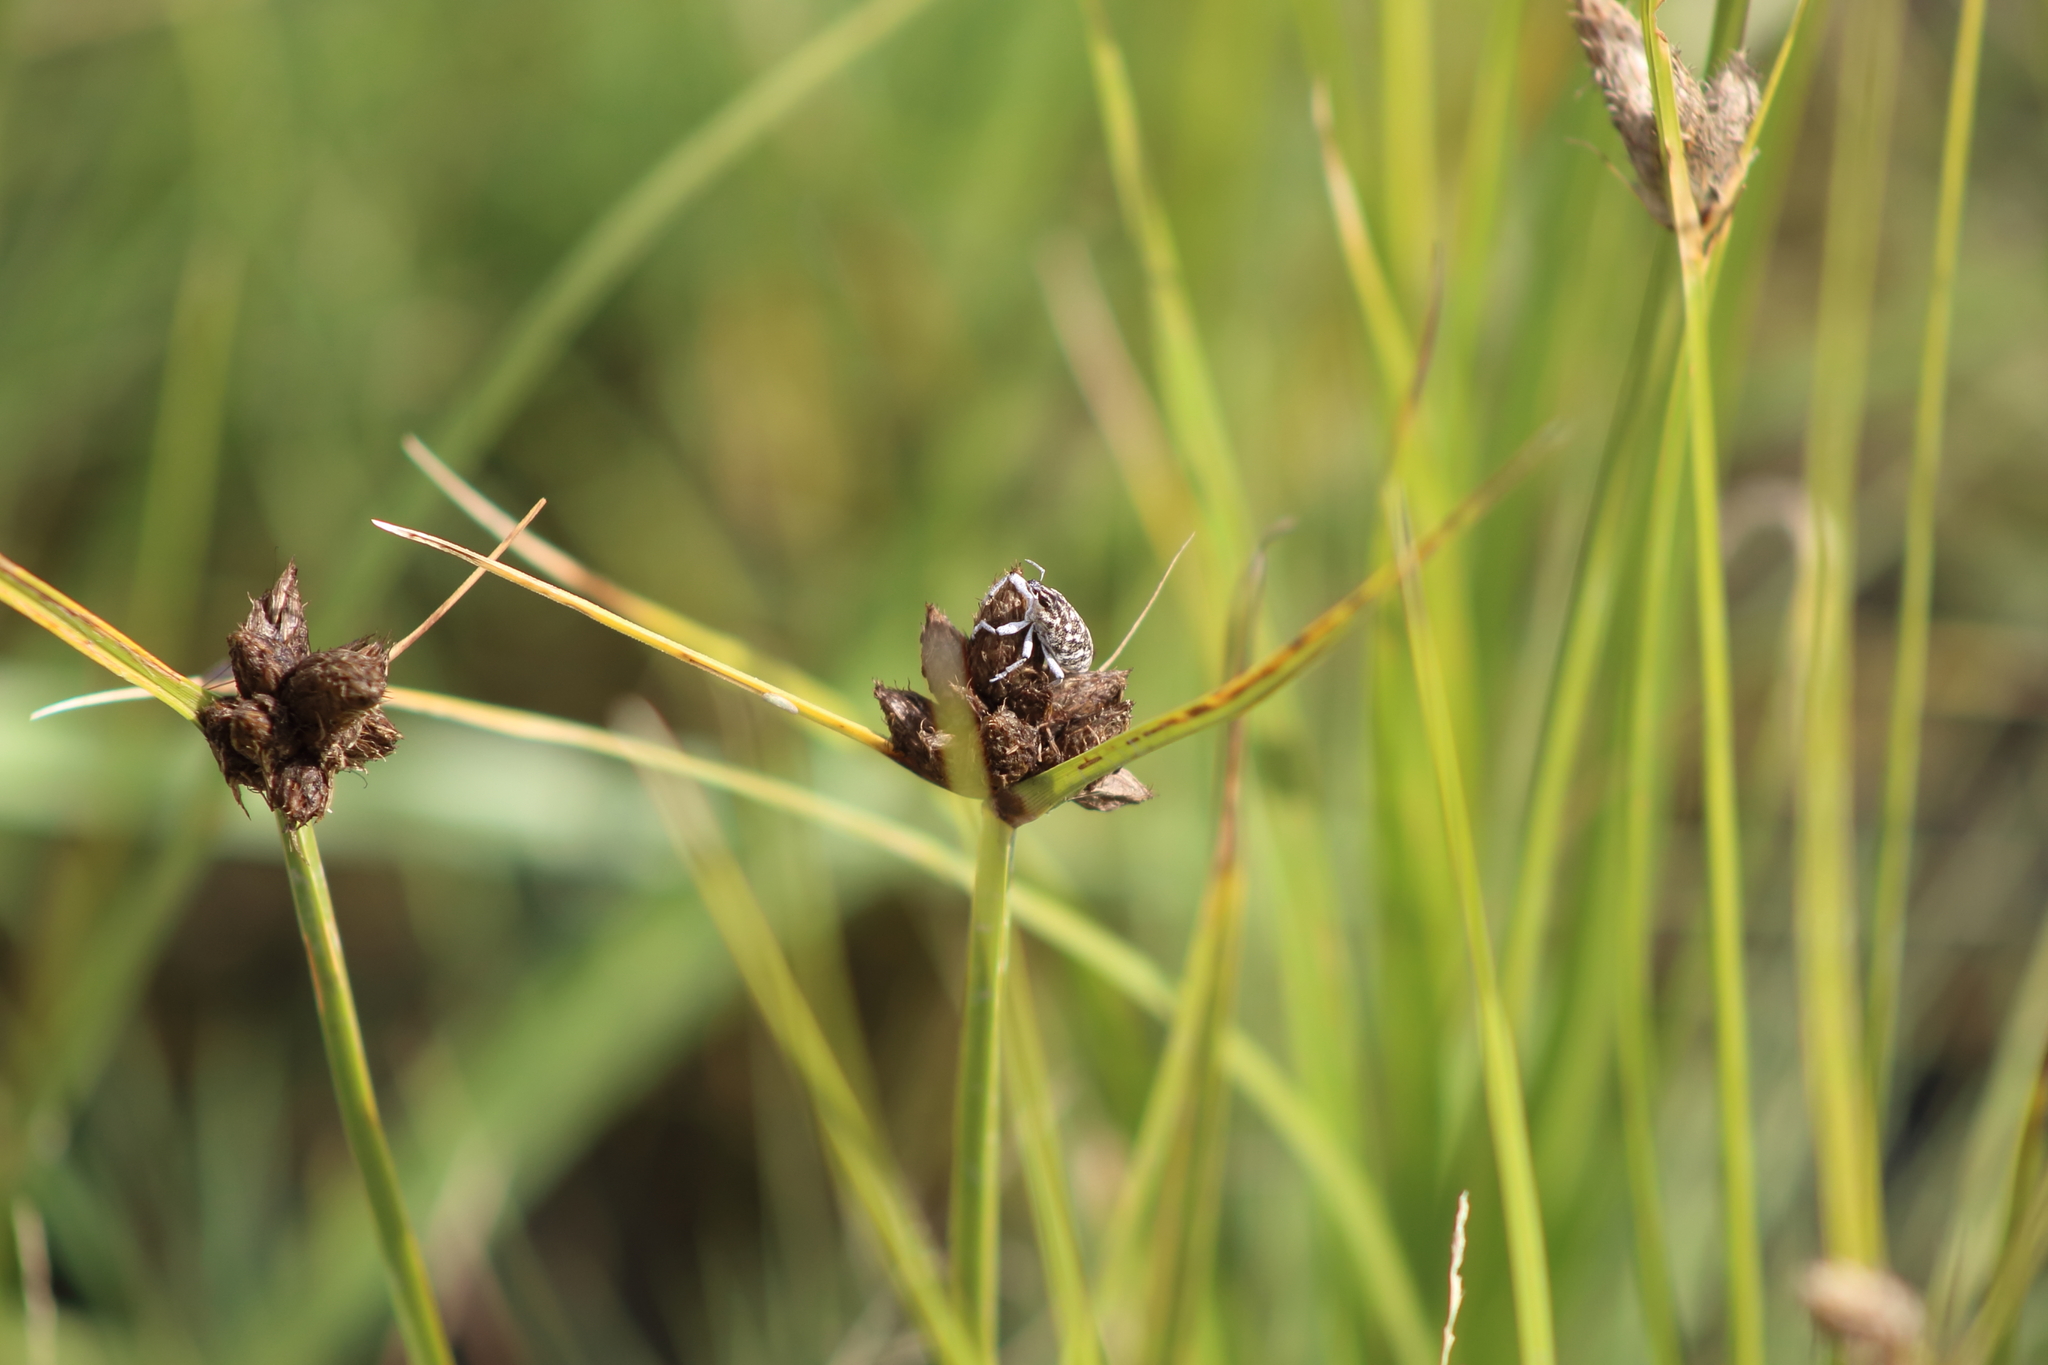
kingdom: Animalia
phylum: Arthropoda
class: Insecta
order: Coleoptera
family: Curculionidae
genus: Cleonus
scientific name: Cleonus achates
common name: Root weevil
